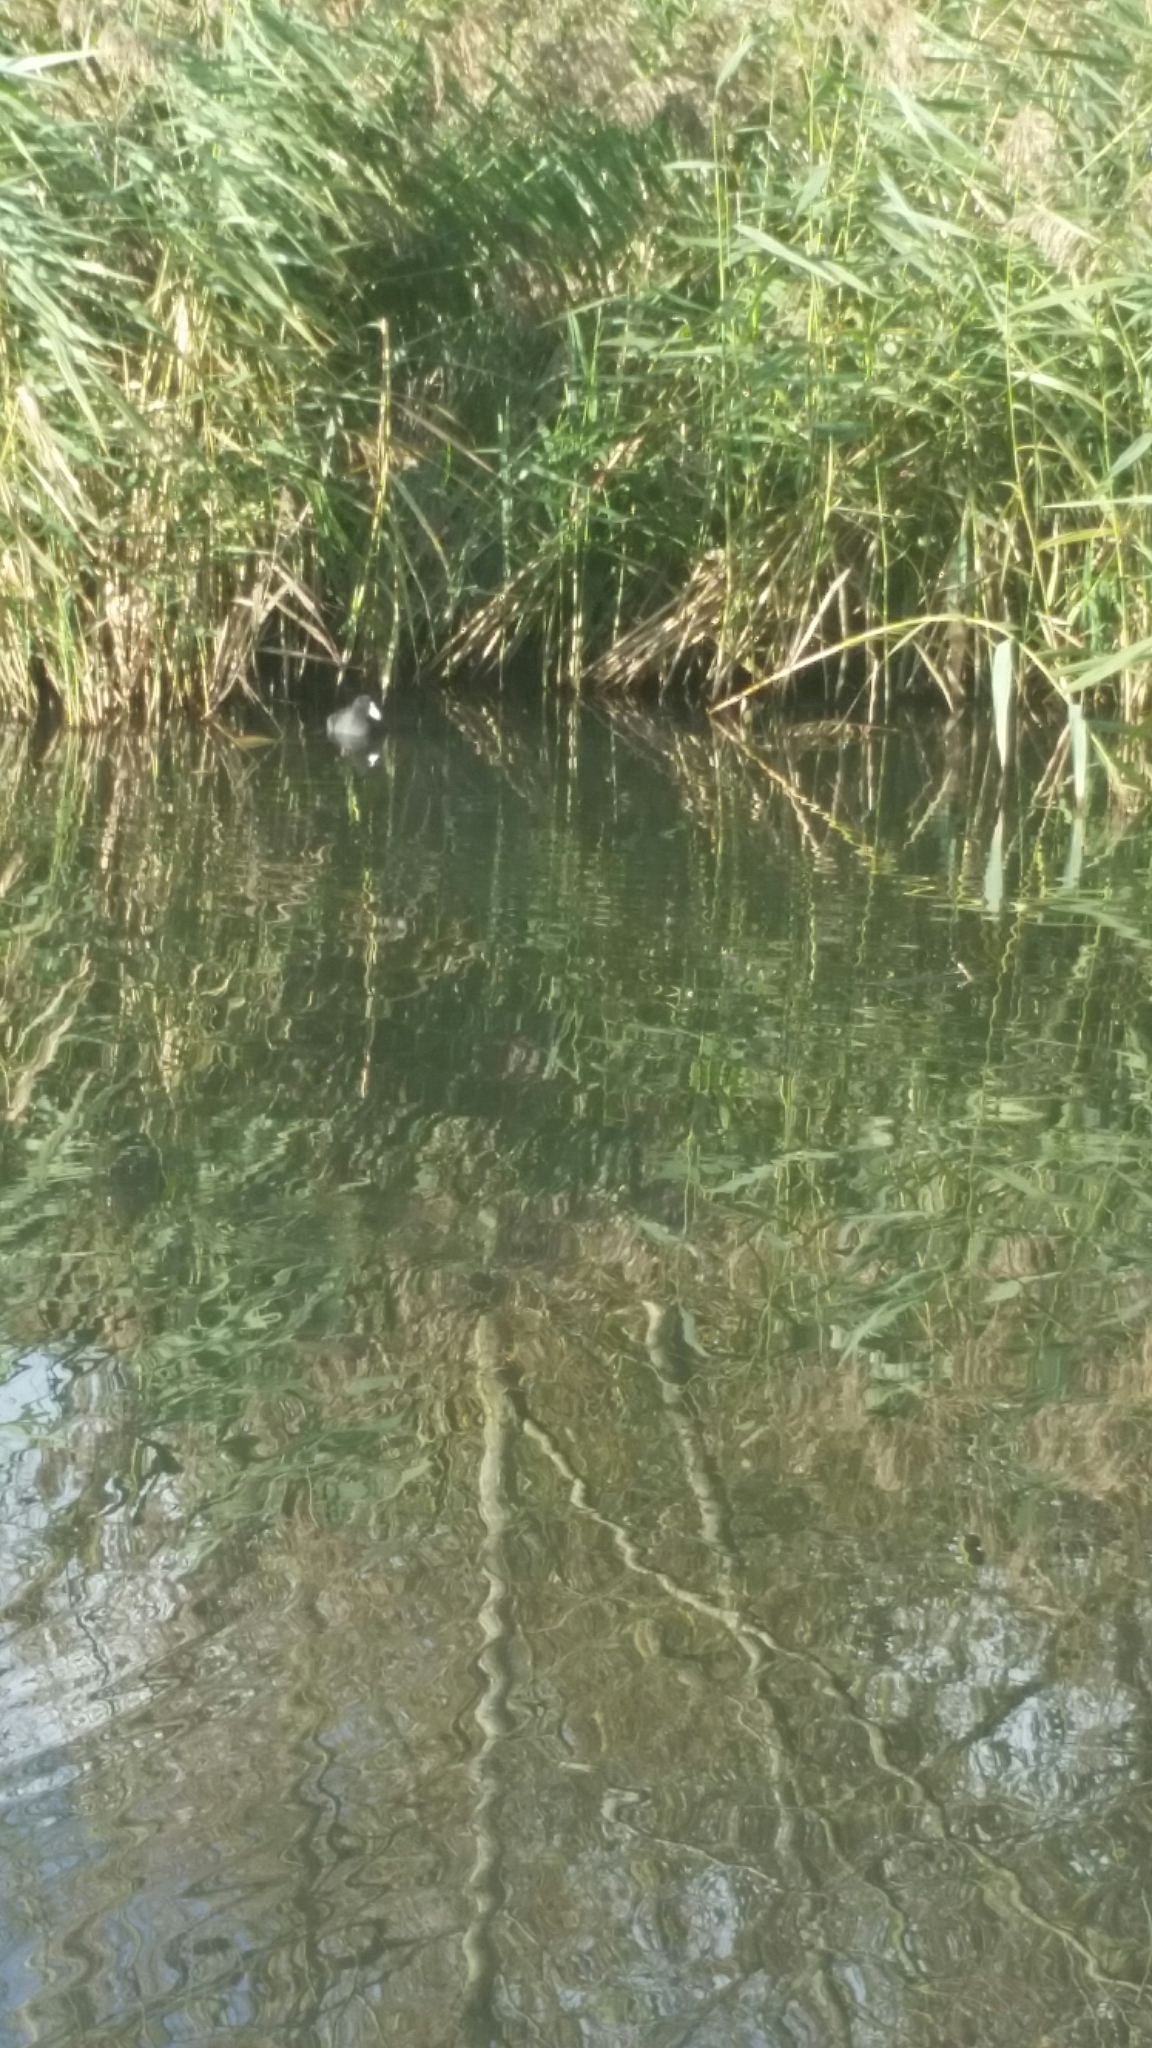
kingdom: Animalia
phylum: Chordata
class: Aves
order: Gruiformes
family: Rallidae
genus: Fulica
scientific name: Fulica atra
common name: Eurasian coot
